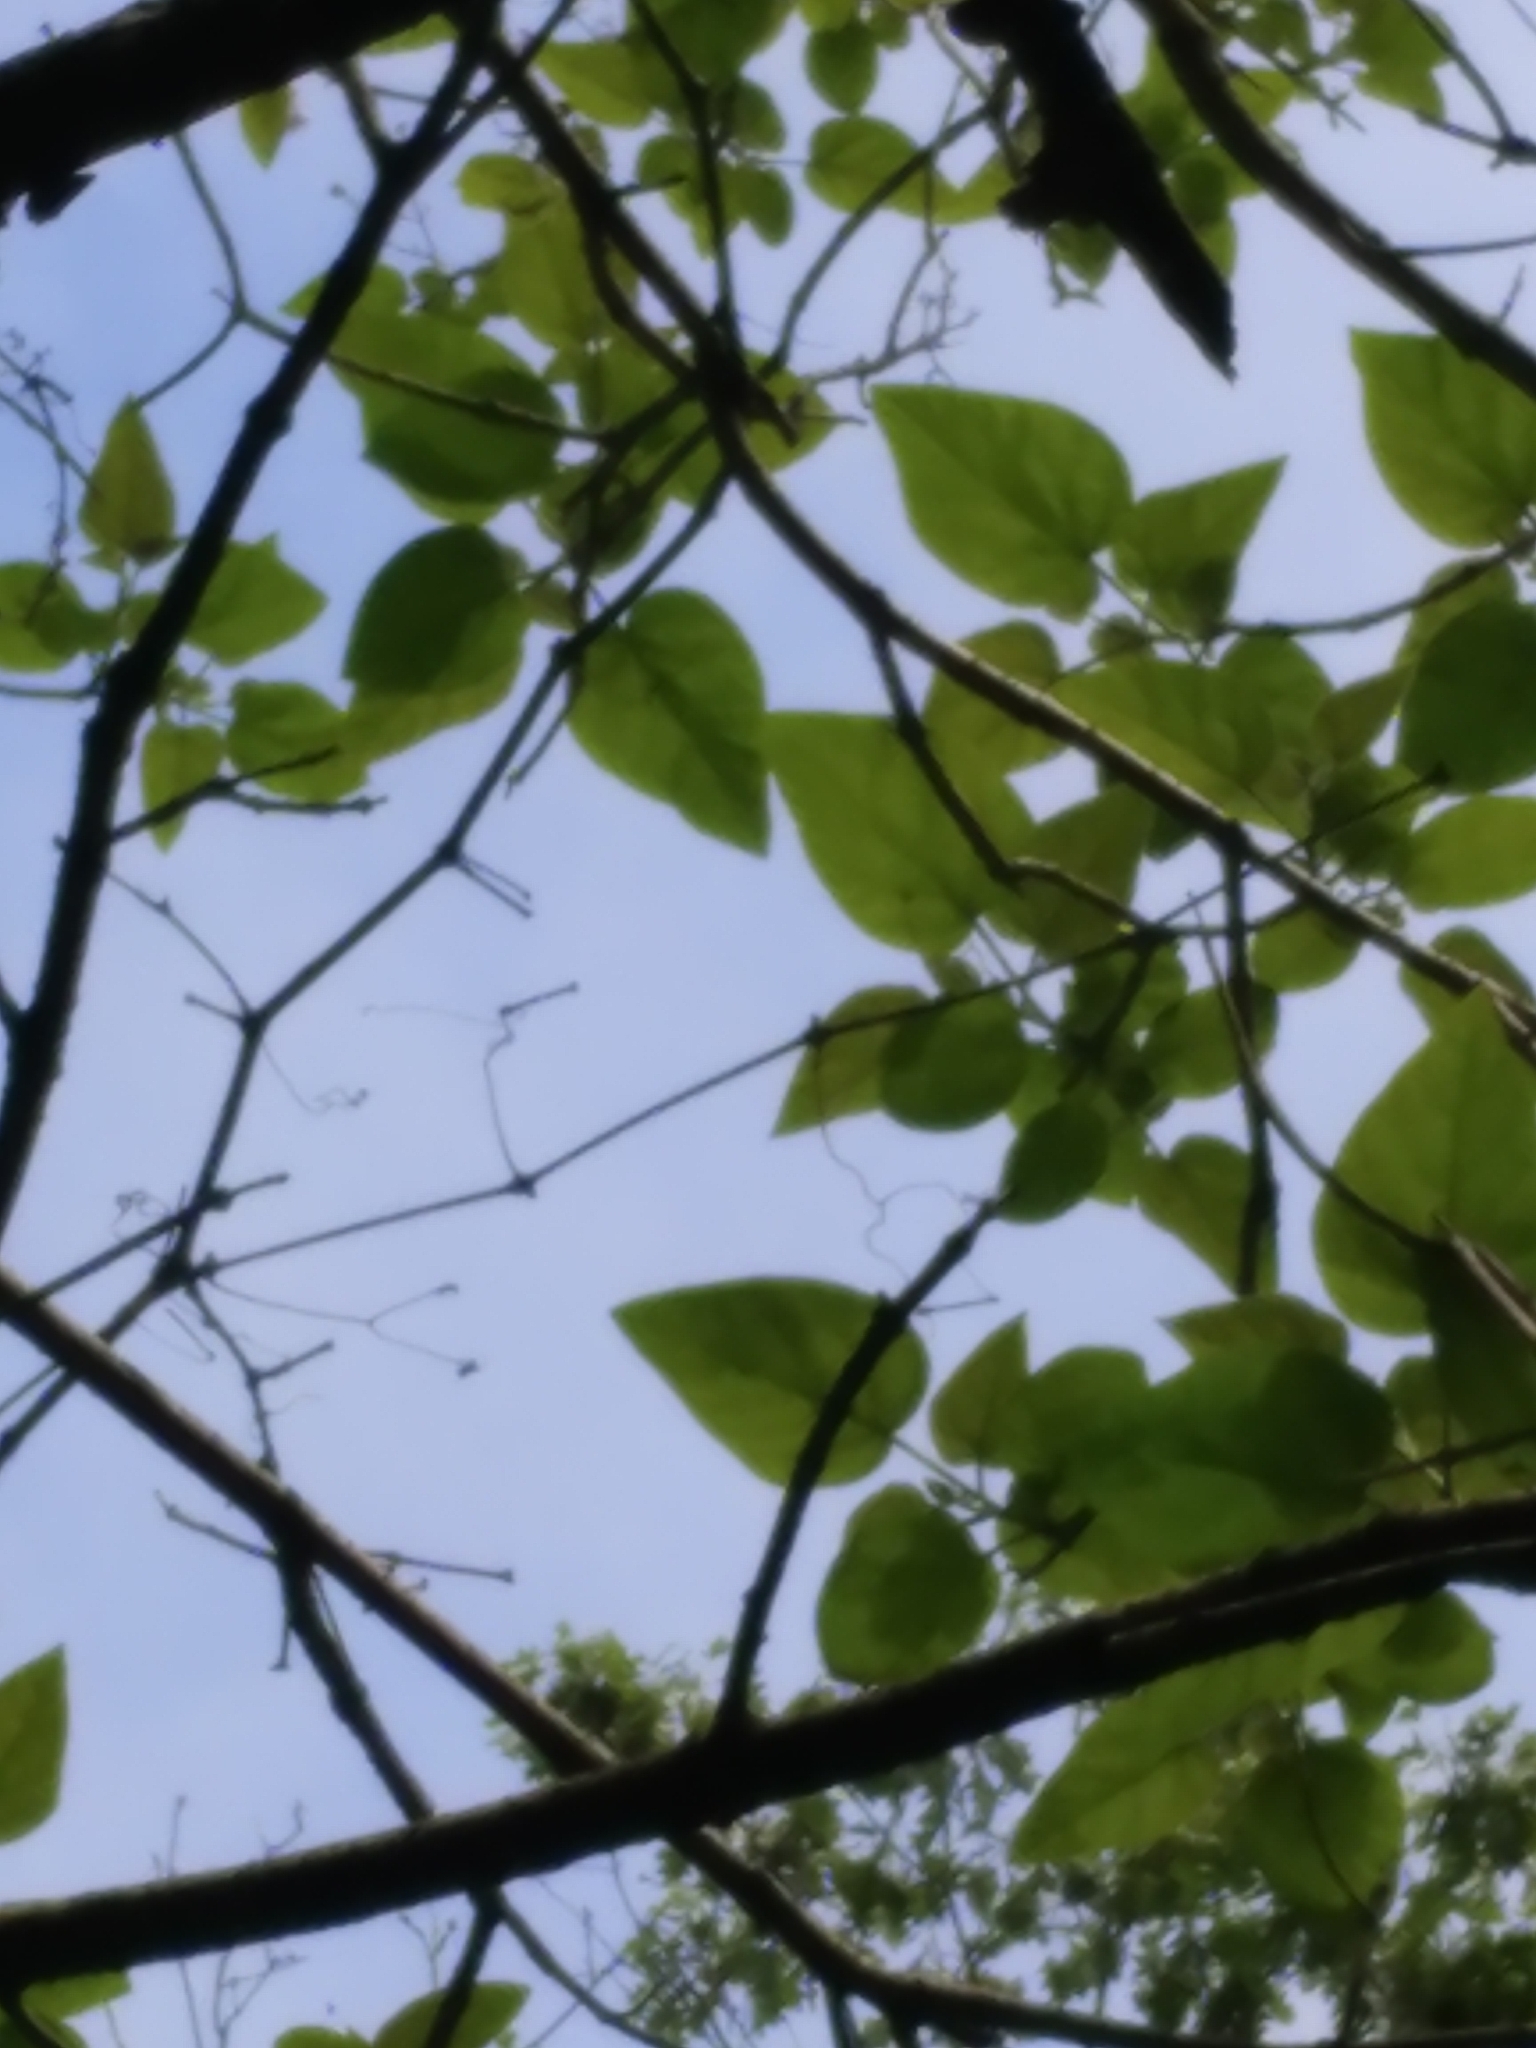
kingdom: Plantae
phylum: Tracheophyta
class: Magnoliopsida
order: Lamiales
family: Paulowniaceae
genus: Paulownia
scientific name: Paulownia tomentosa
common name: Foxglove-tree
